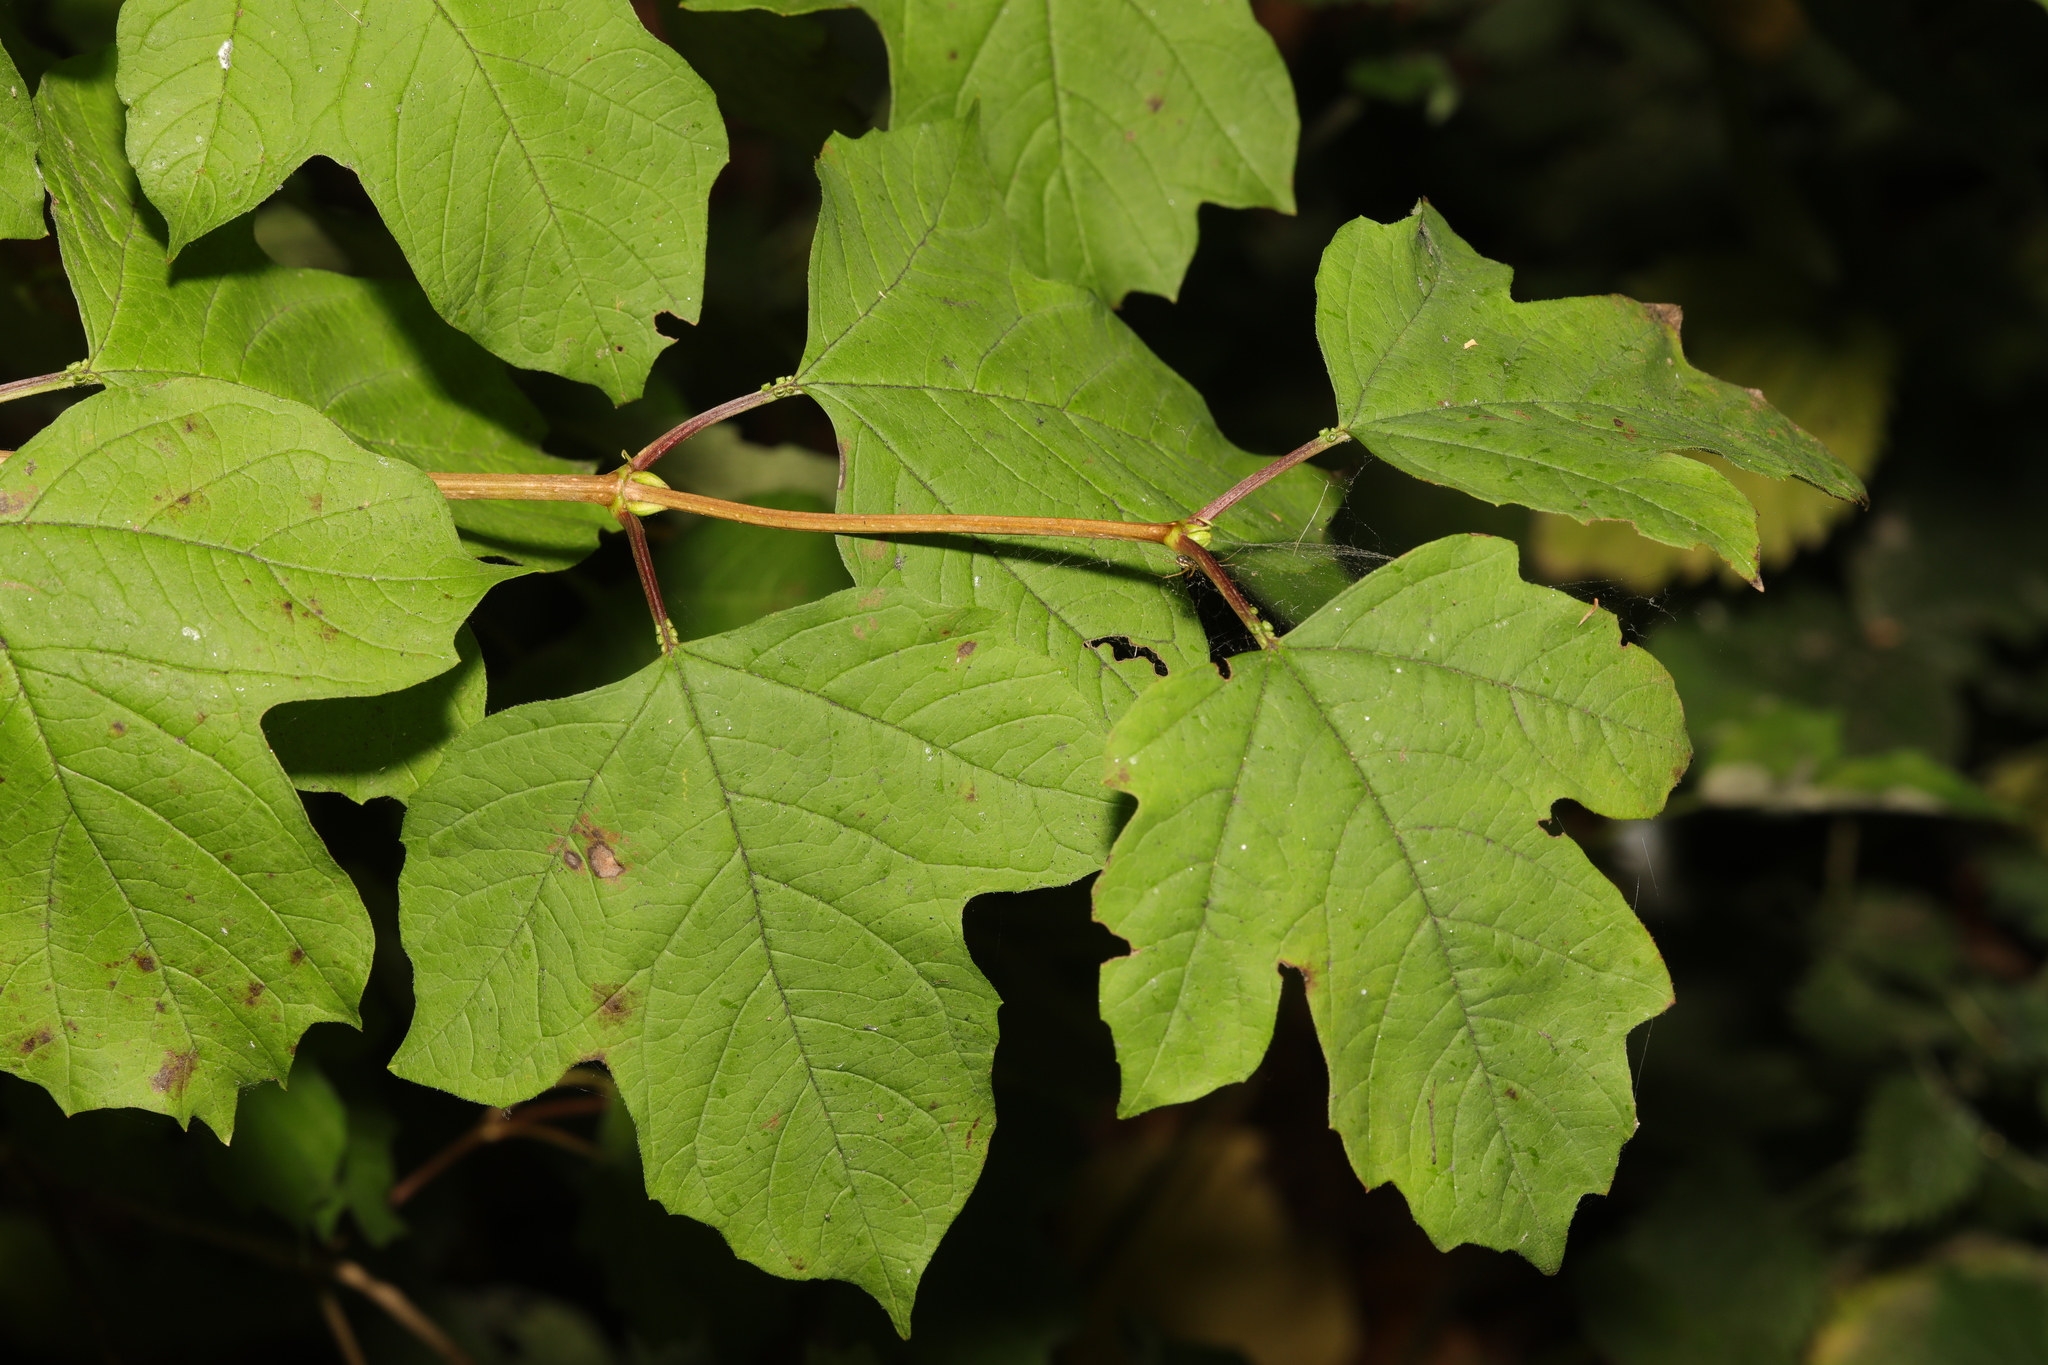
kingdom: Plantae
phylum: Tracheophyta
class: Magnoliopsida
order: Dipsacales
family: Viburnaceae
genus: Viburnum
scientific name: Viburnum opulus
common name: Guelder-rose
